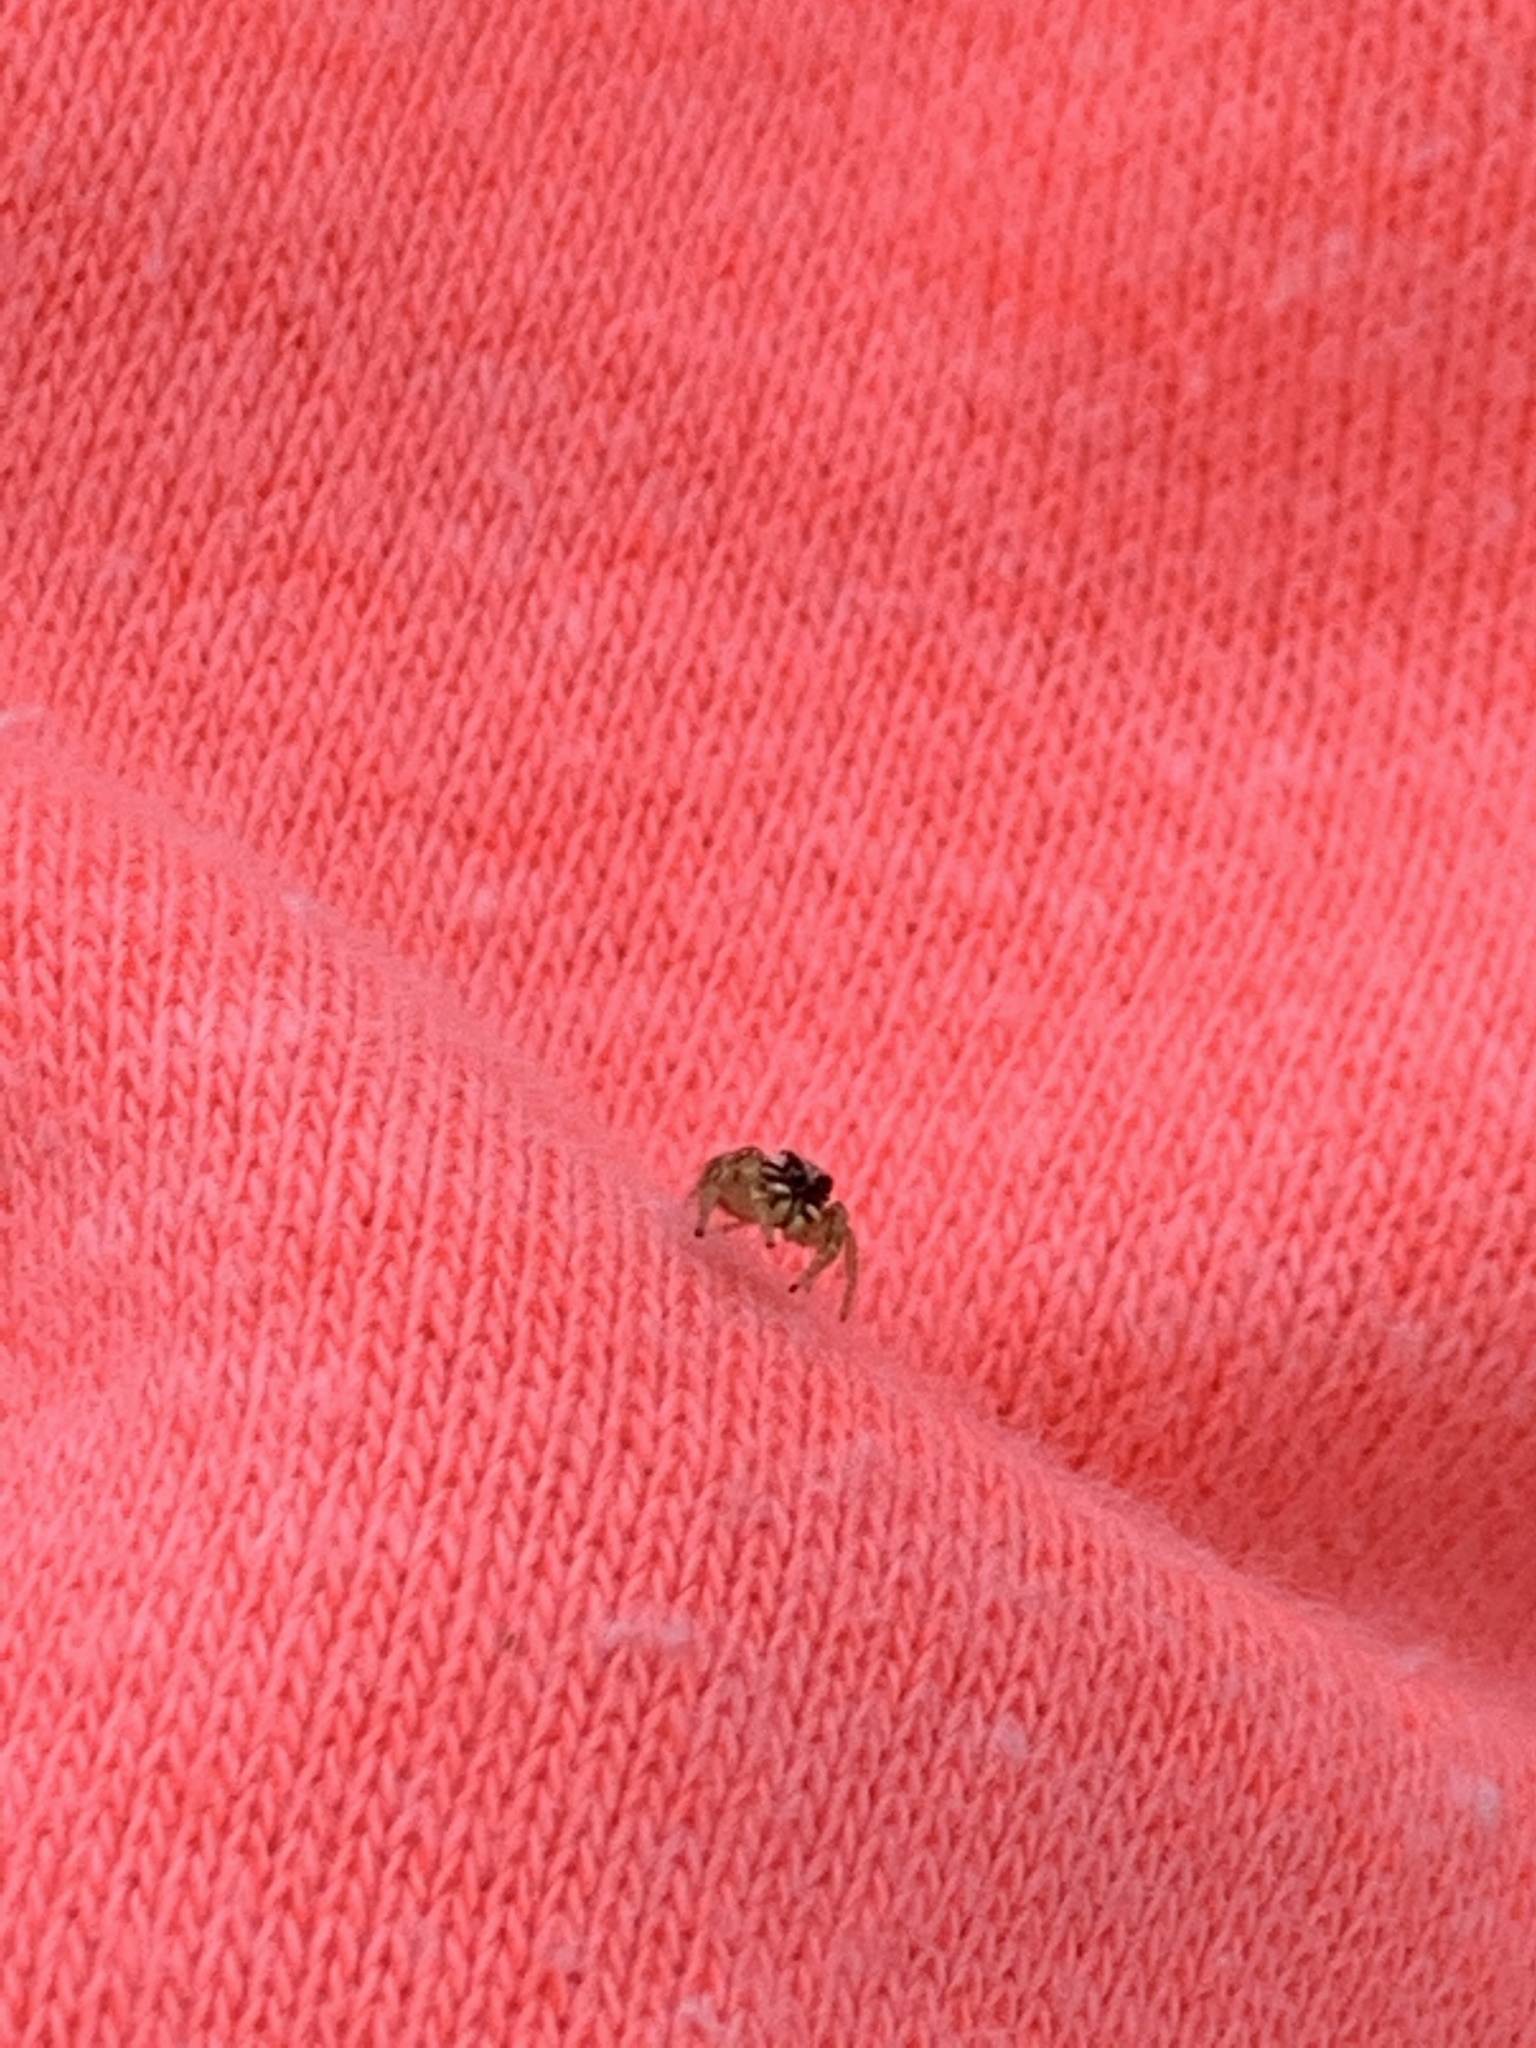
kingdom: Animalia
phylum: Arthropoda
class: Arachnida
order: Araneae
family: Salticidae
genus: Pelegrina
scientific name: Pelegrina pervaga
